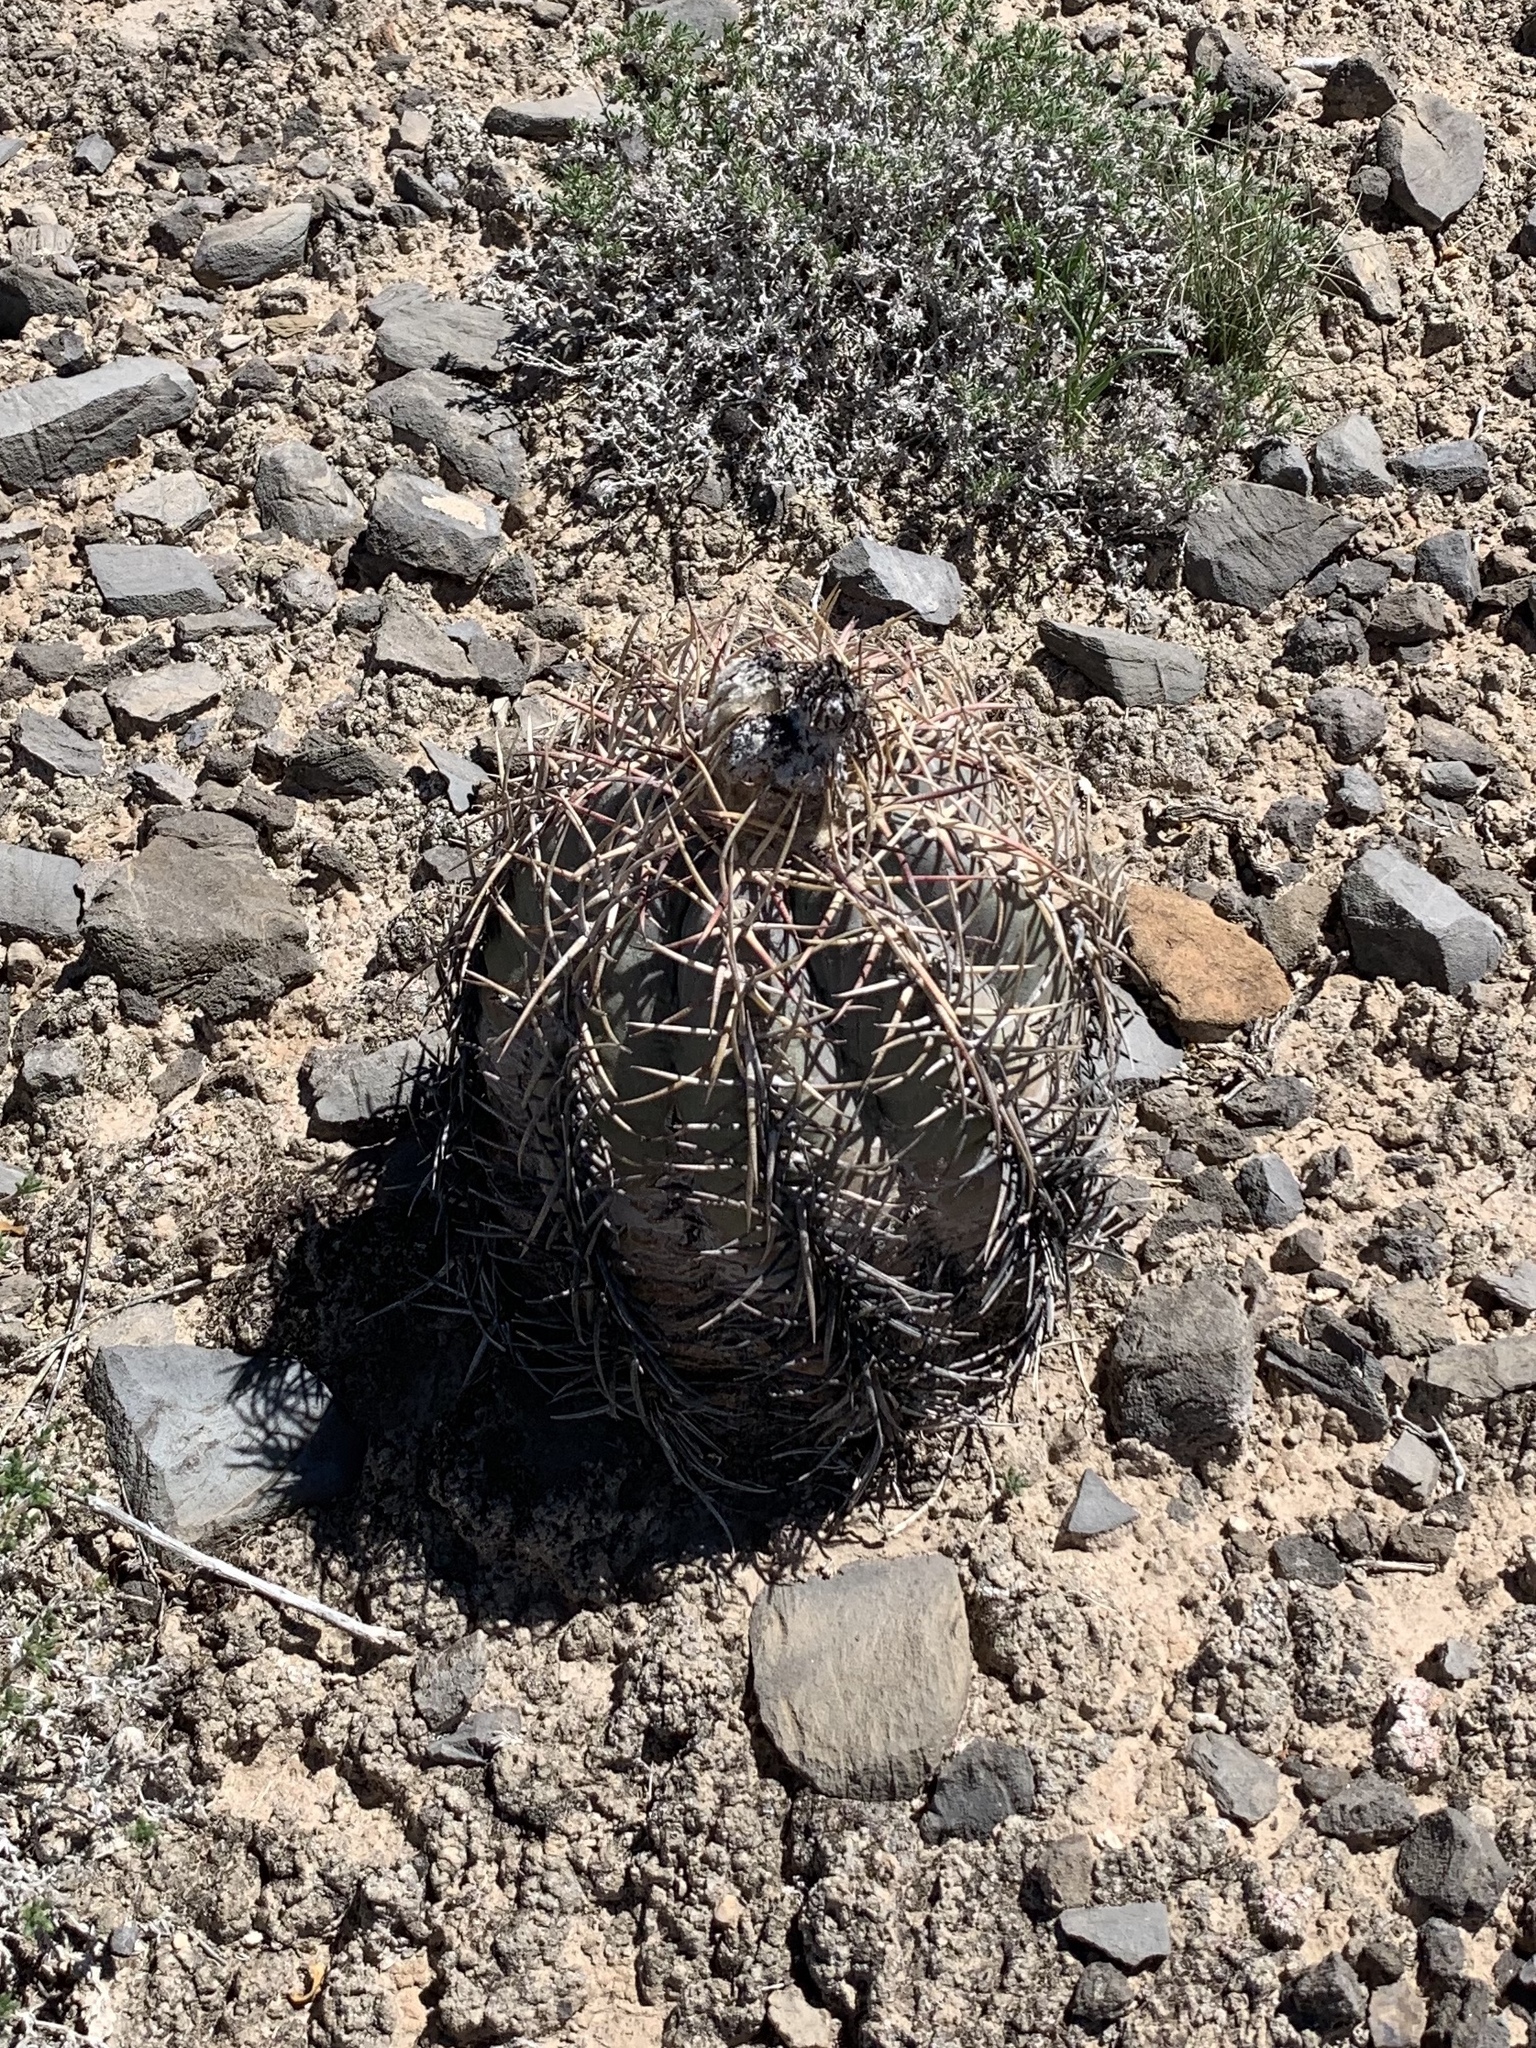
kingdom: Plantae
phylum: Tracheophyta
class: Magnoliopsida
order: Caryophyllales
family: Cactaceae
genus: Echinocactus
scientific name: Echinocactus horizonthalonius
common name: Devilshead
